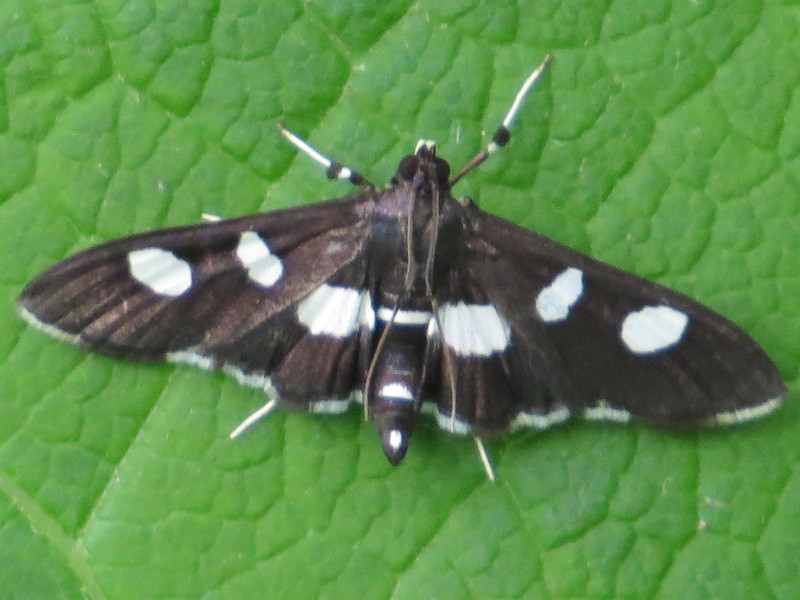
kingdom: Animalia
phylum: Arthropoda
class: Insecta
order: Lepidoptera
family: Crambidae
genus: Desmia
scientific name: Desmia
